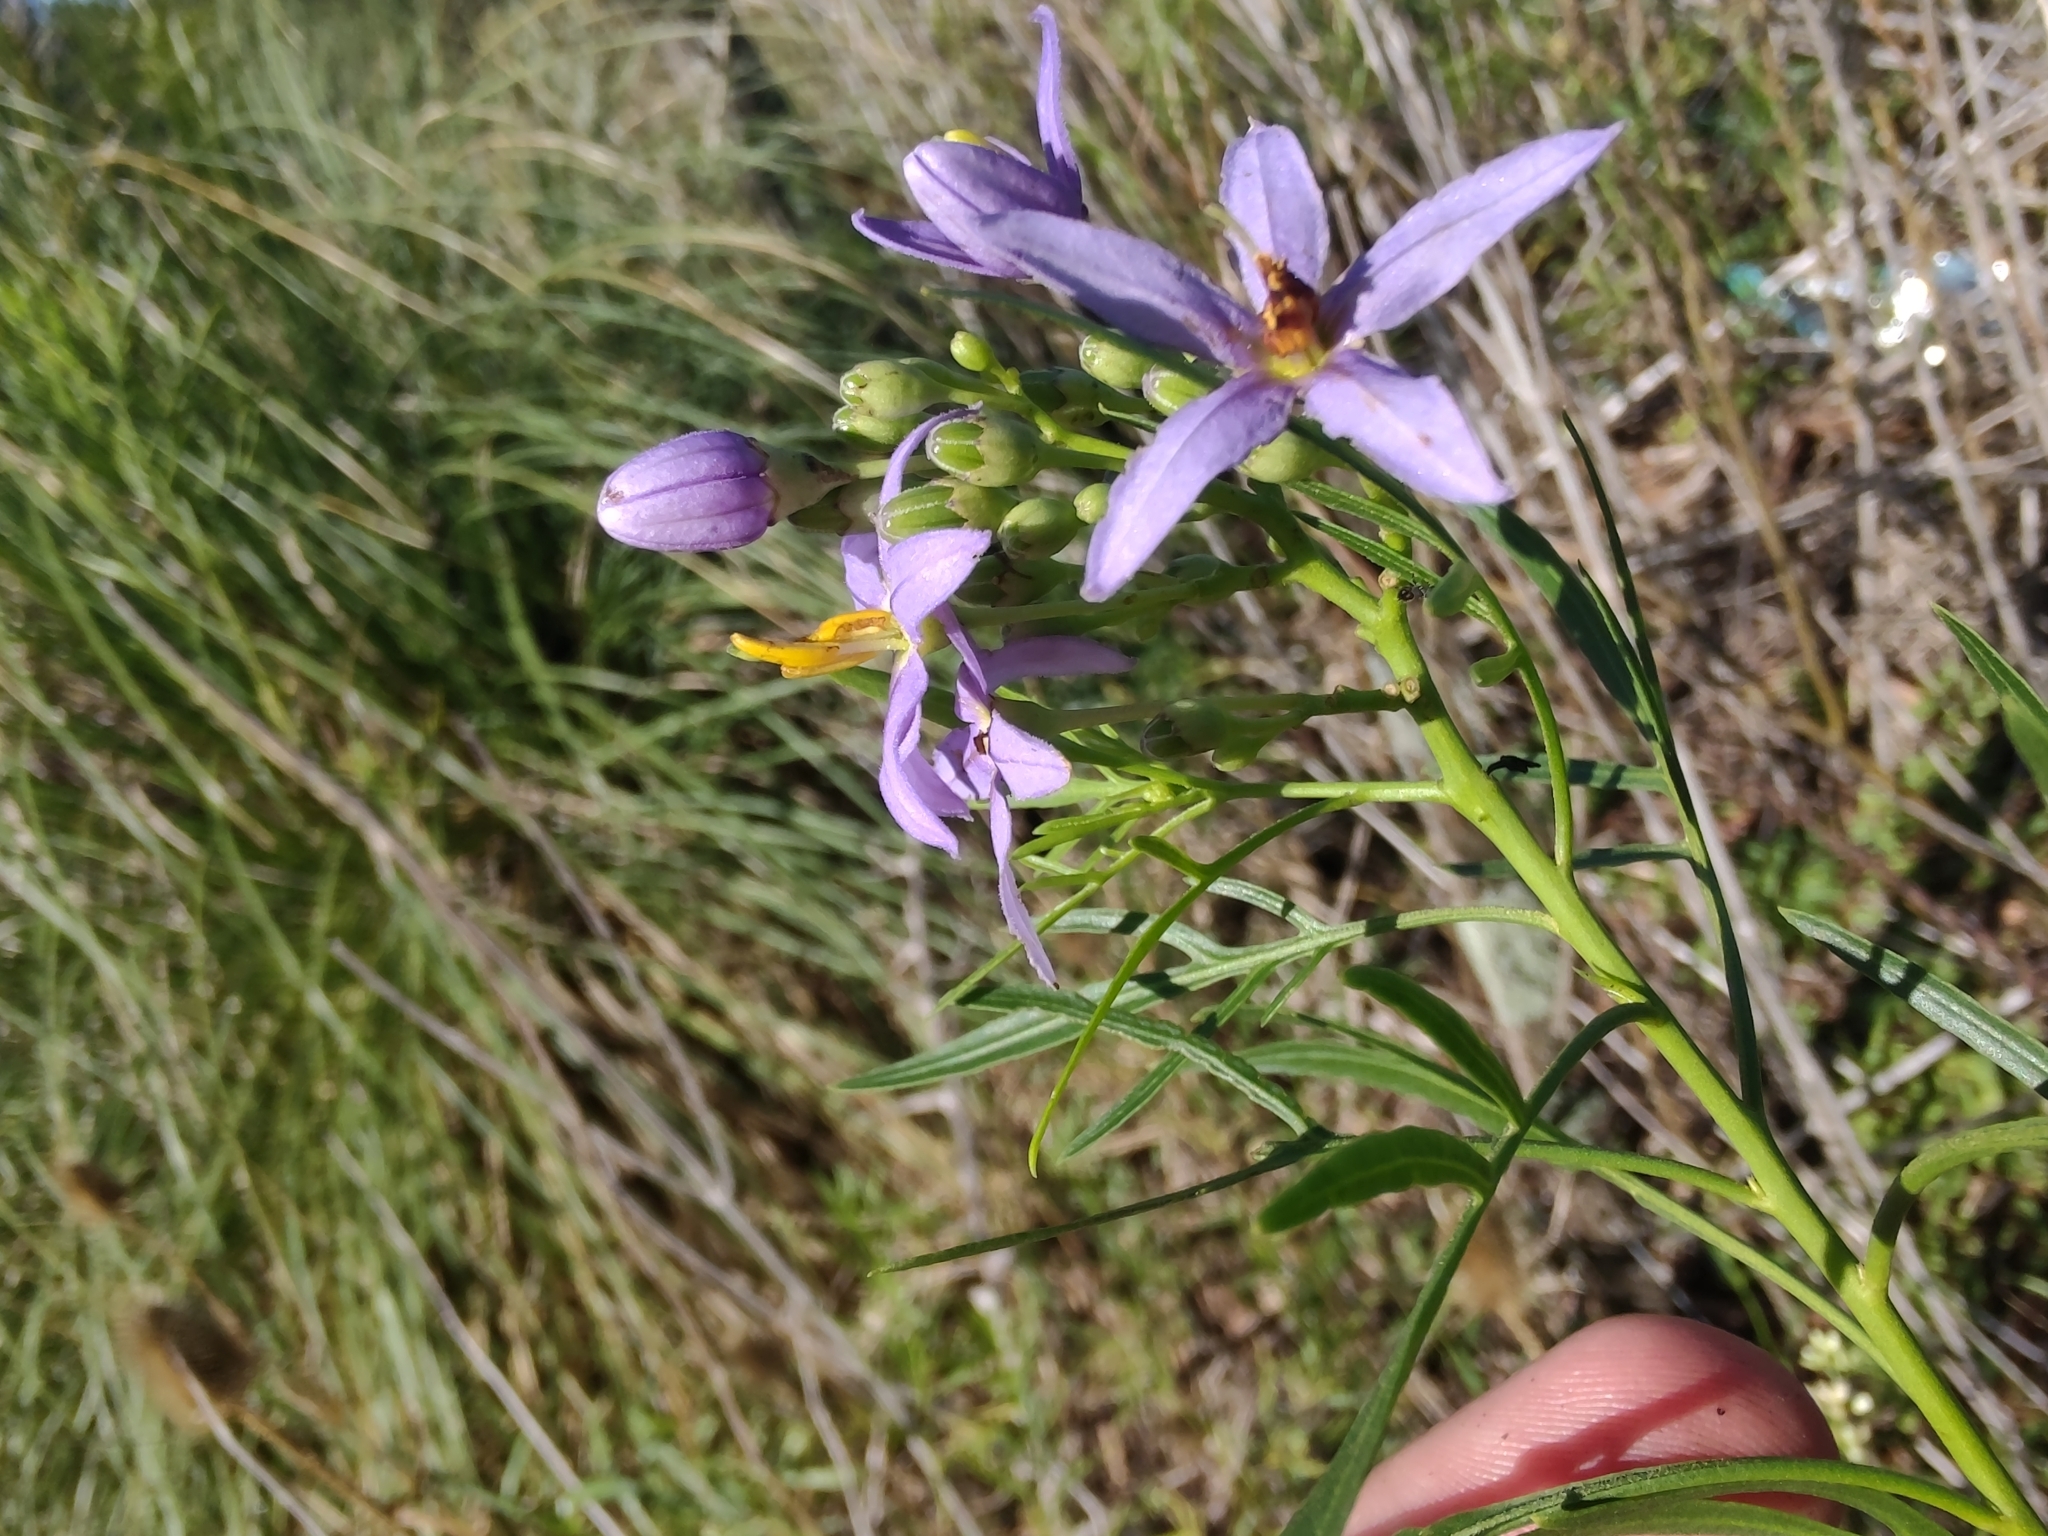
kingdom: Plantae
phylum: Tracheophyta
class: Magnoliopsida
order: Solanales
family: Solanaceae
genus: Solanum
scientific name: Solanum angustifidum
